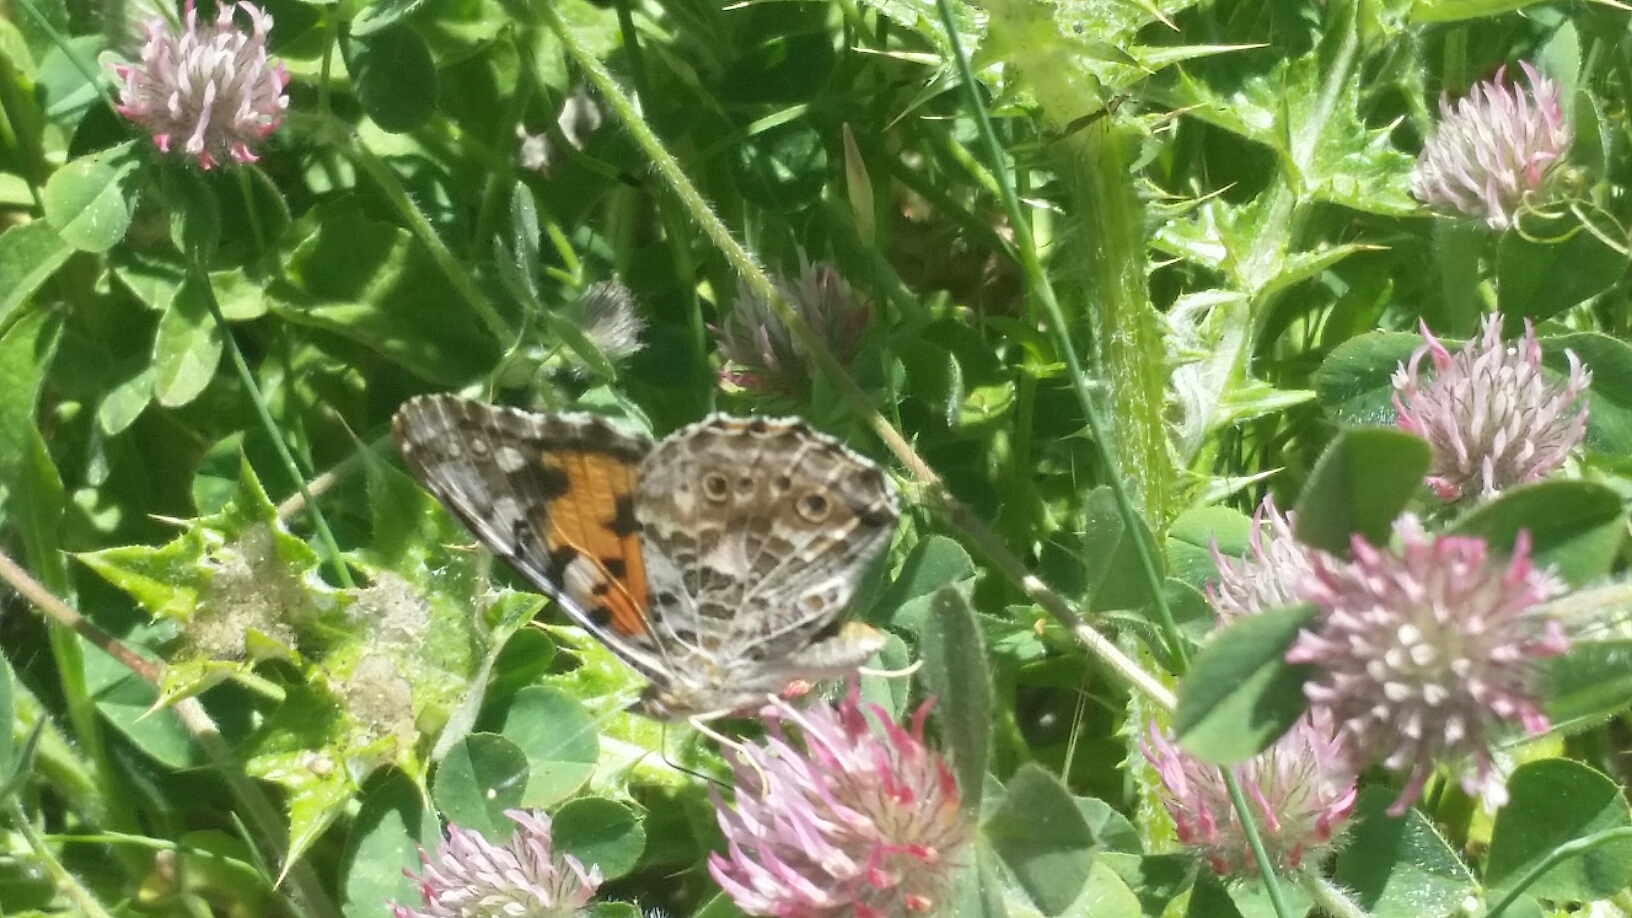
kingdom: Animalia
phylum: Arthropoda
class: Insecta
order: Lepidoptera
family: Nymphalidae
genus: Vanessa
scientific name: Vanessa cardui
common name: Painted lady
